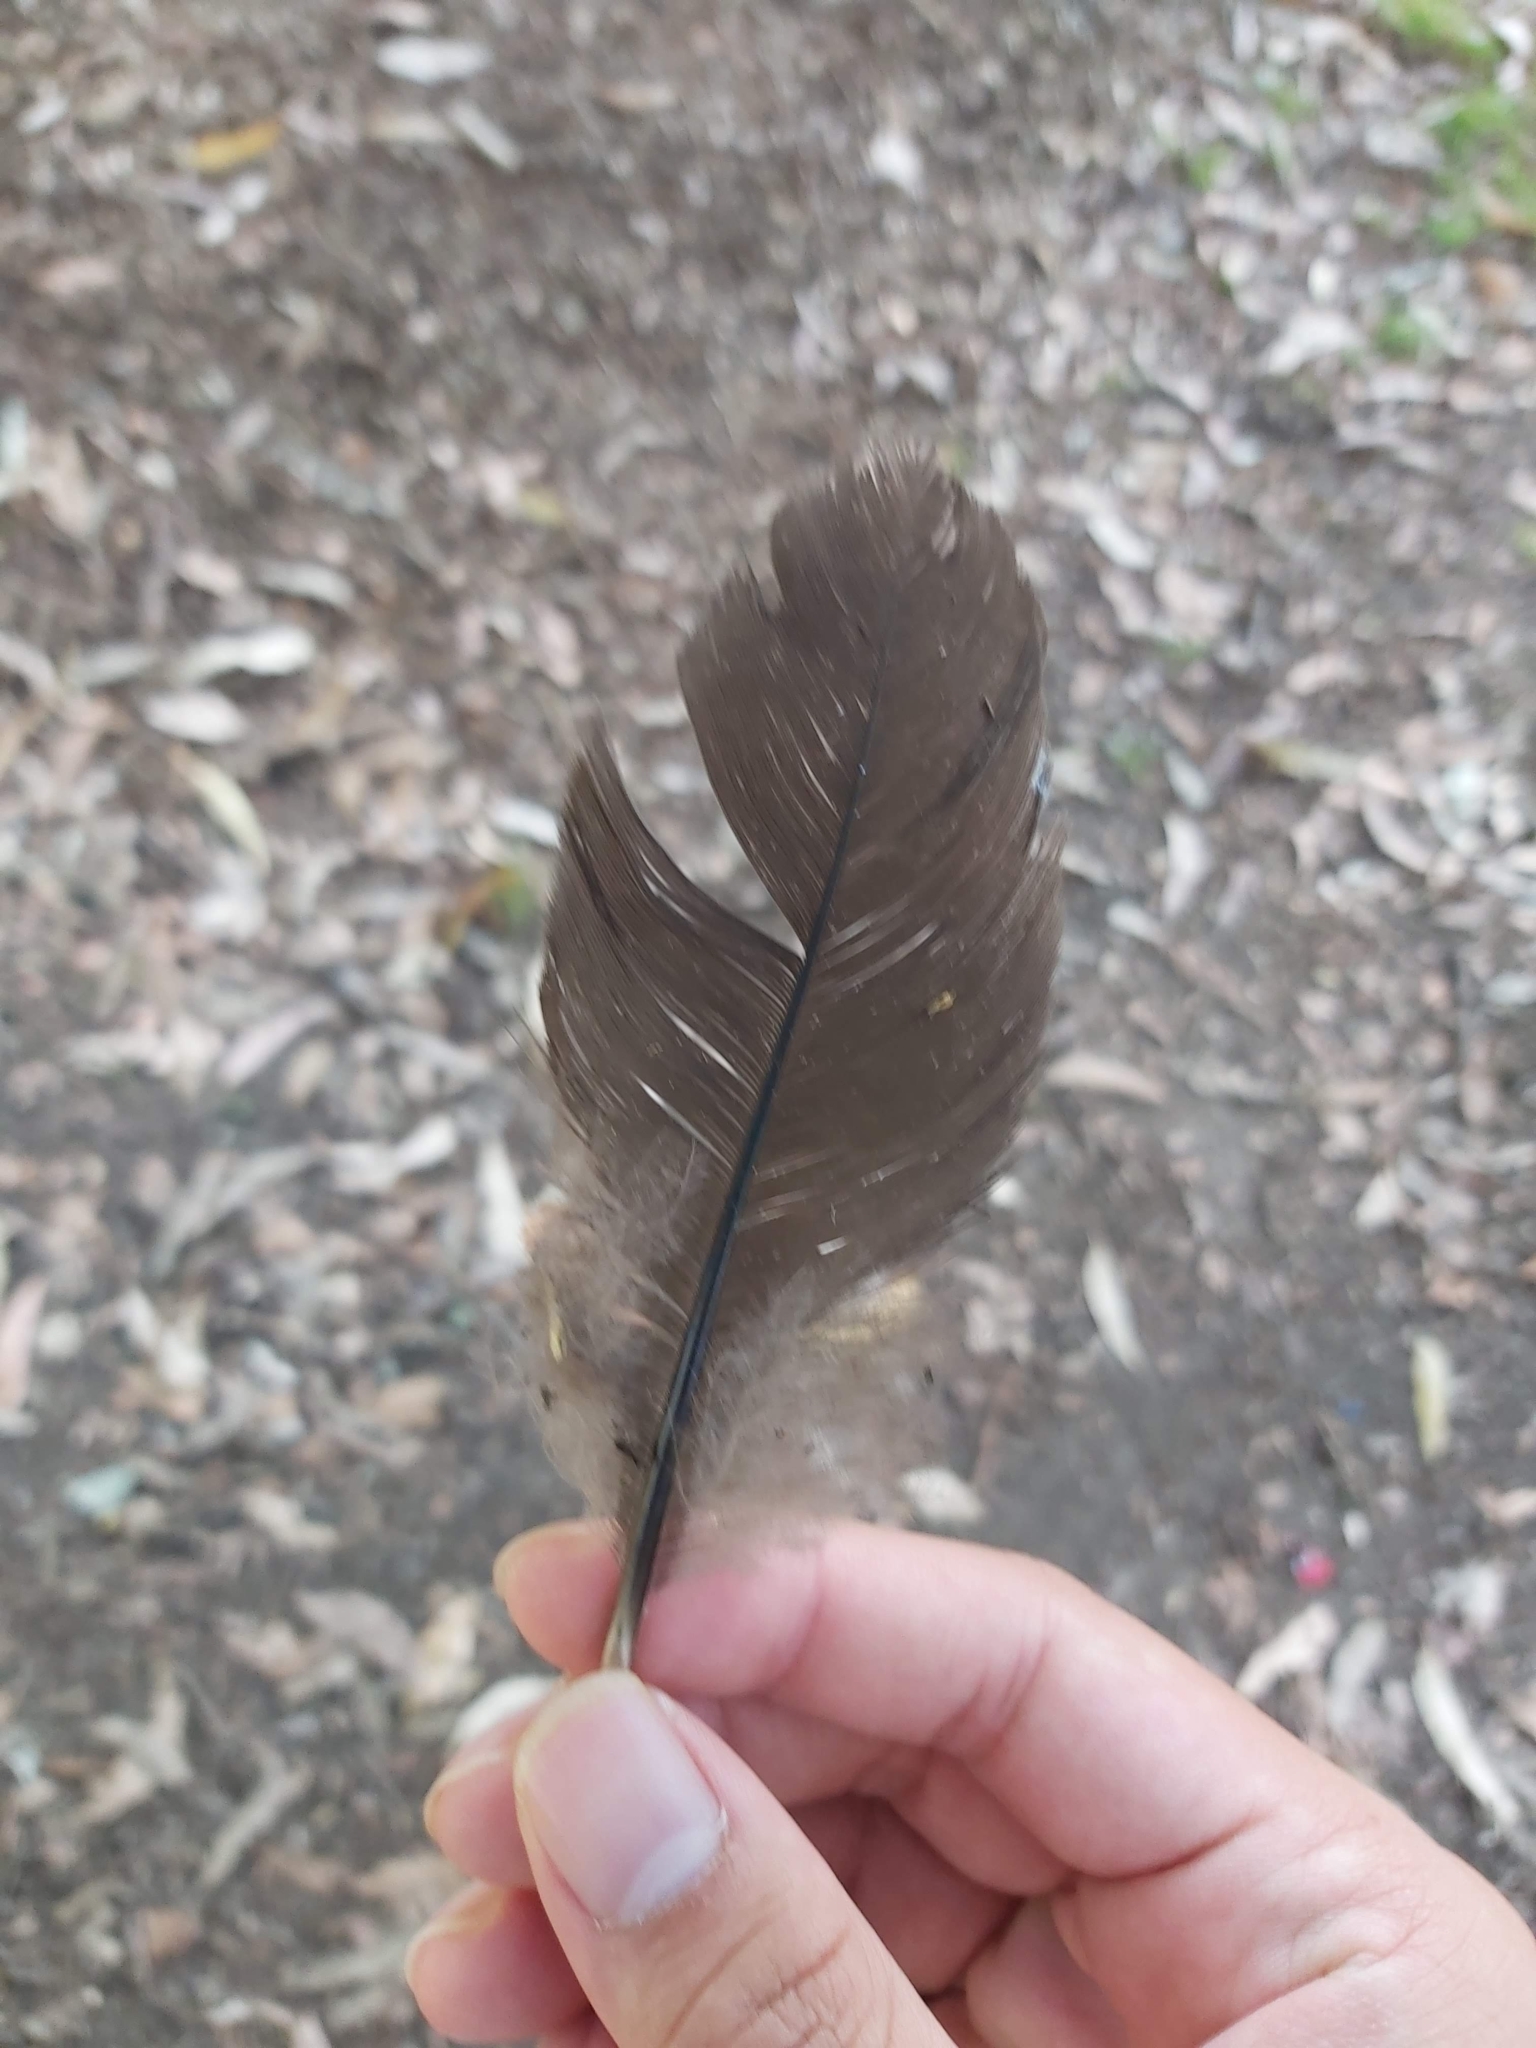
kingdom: Animalia
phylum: Chordata
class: Aves
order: Galliformes
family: Megapodiidae
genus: Alectura
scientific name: Alectura lathami
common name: Australian brushturkey
